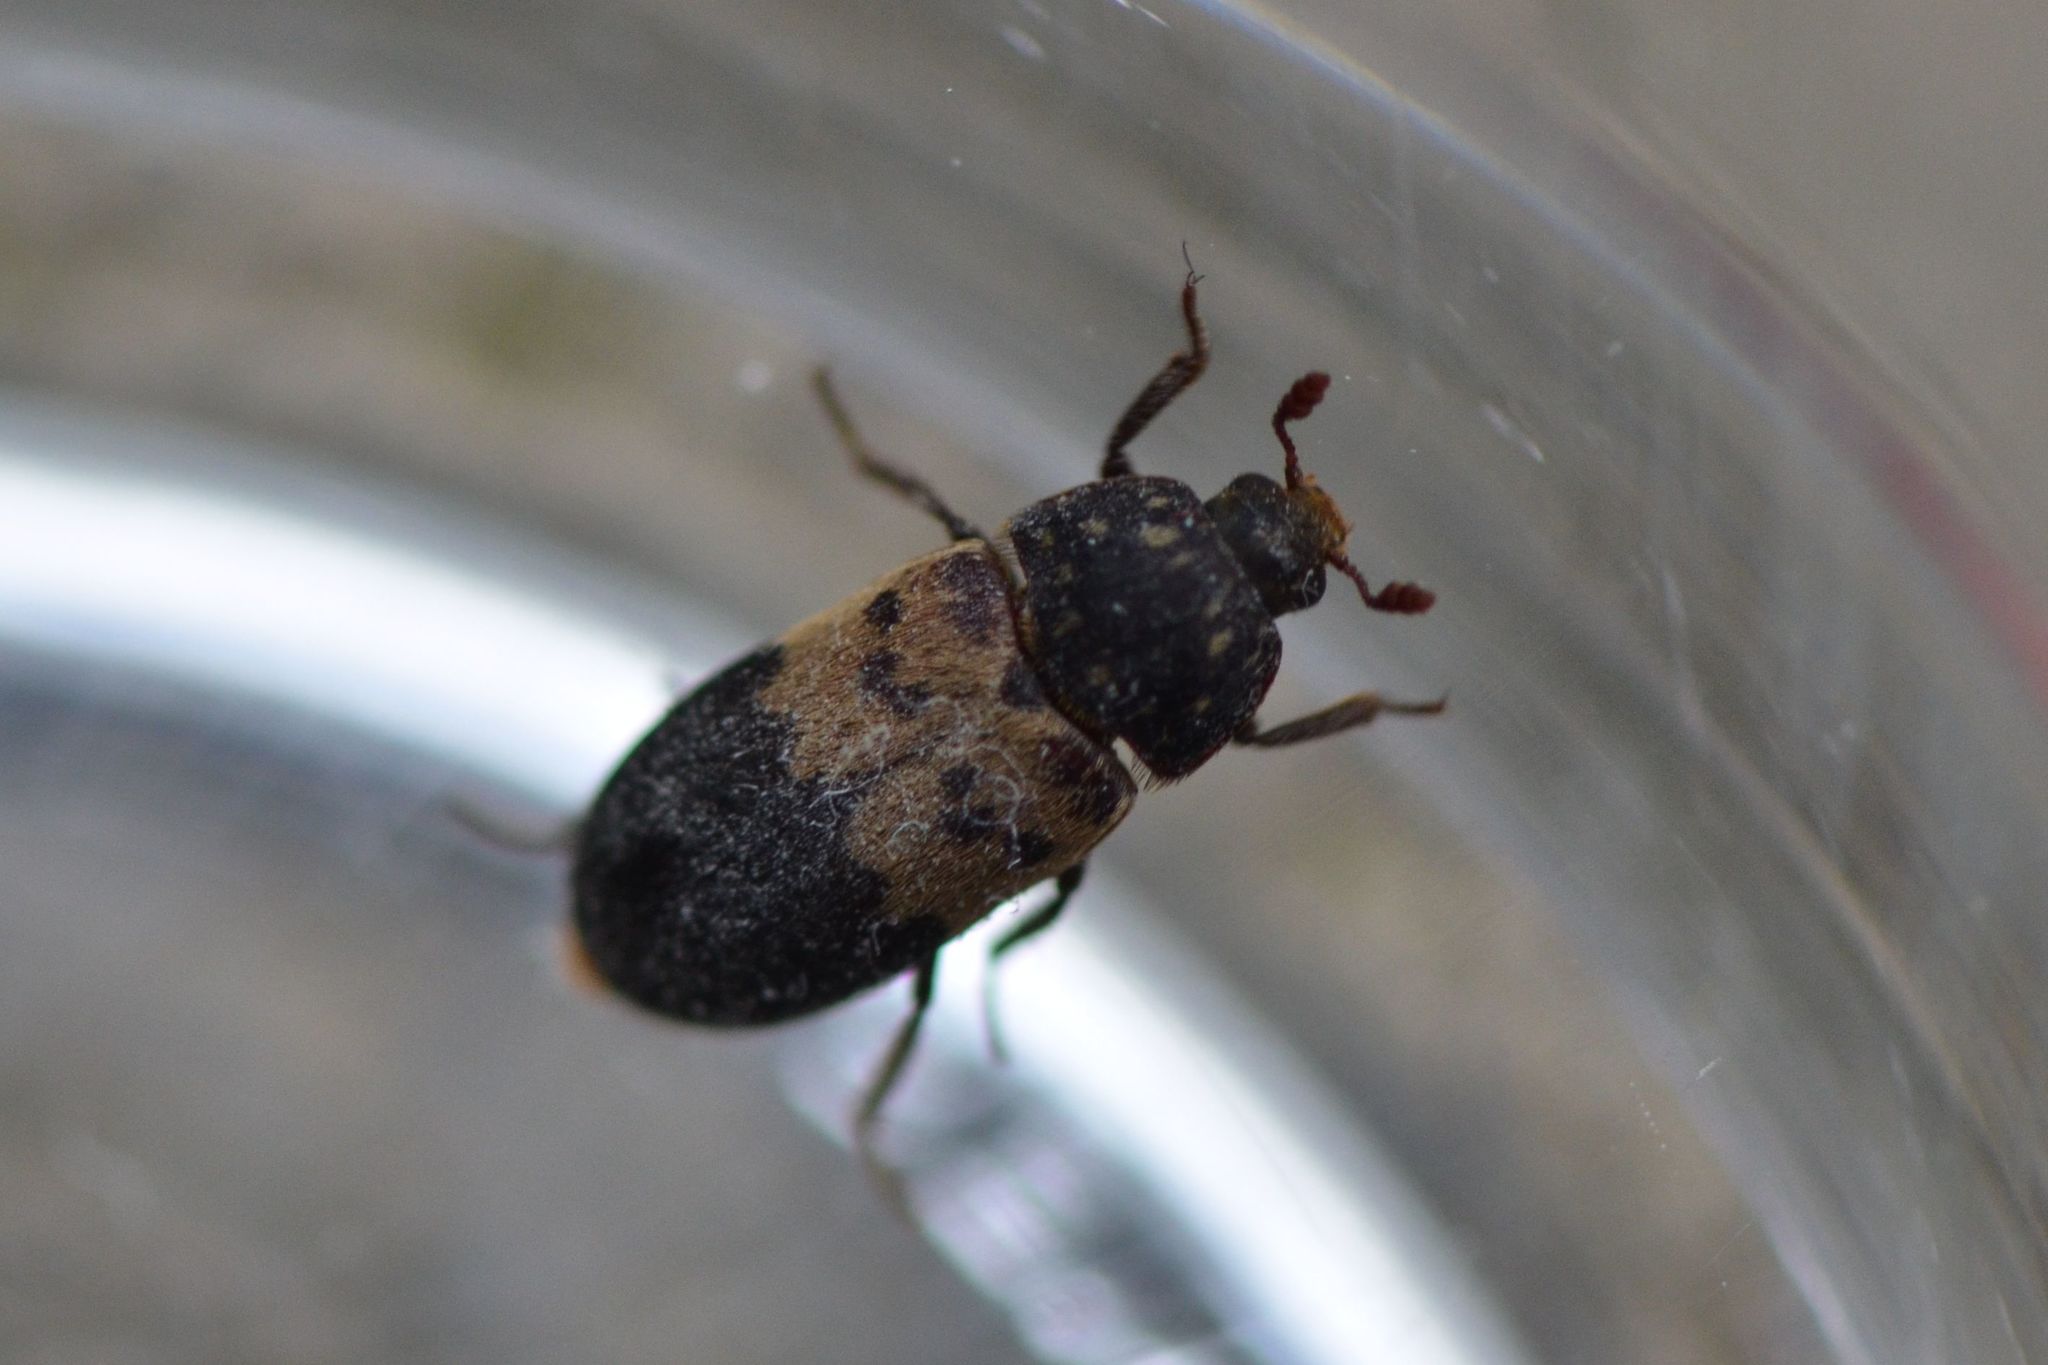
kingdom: Animalia
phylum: Arthropoda
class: Insecta
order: Coleoptera
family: Dermestidae
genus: Dermestes
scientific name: Dermestes lardarius
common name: Larder beetle
